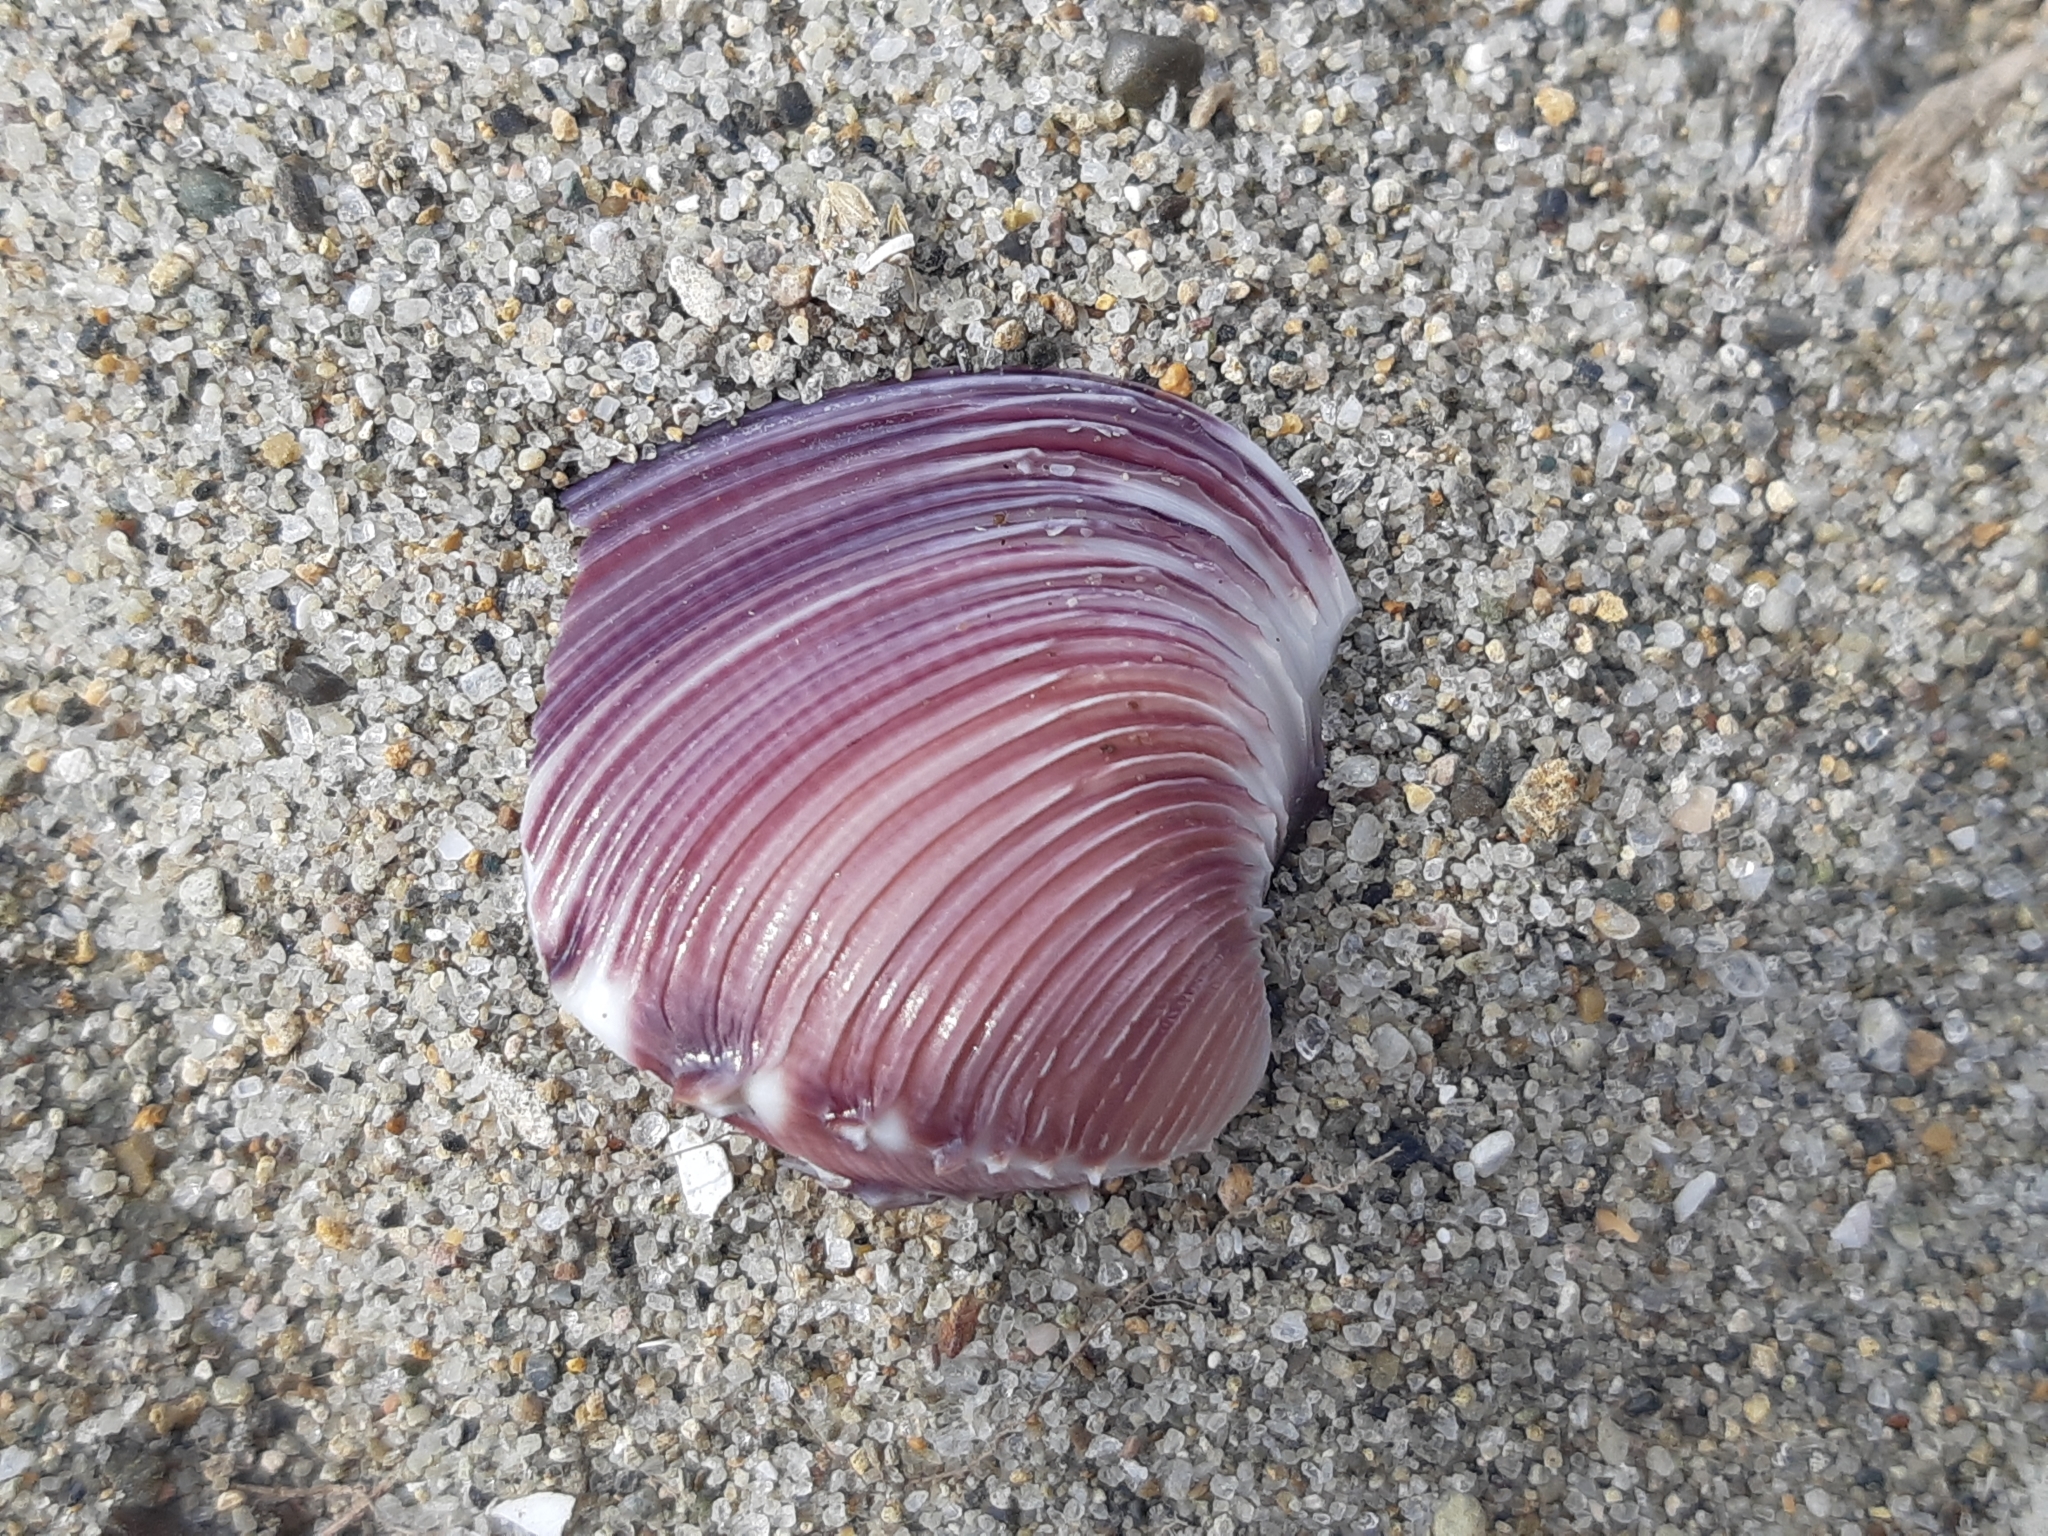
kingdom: Animalia
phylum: Mollusca
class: Bivalvia
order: Venerida
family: Veneridae
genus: Hysteroconcha
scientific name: Hysteroconcha lupanaria
